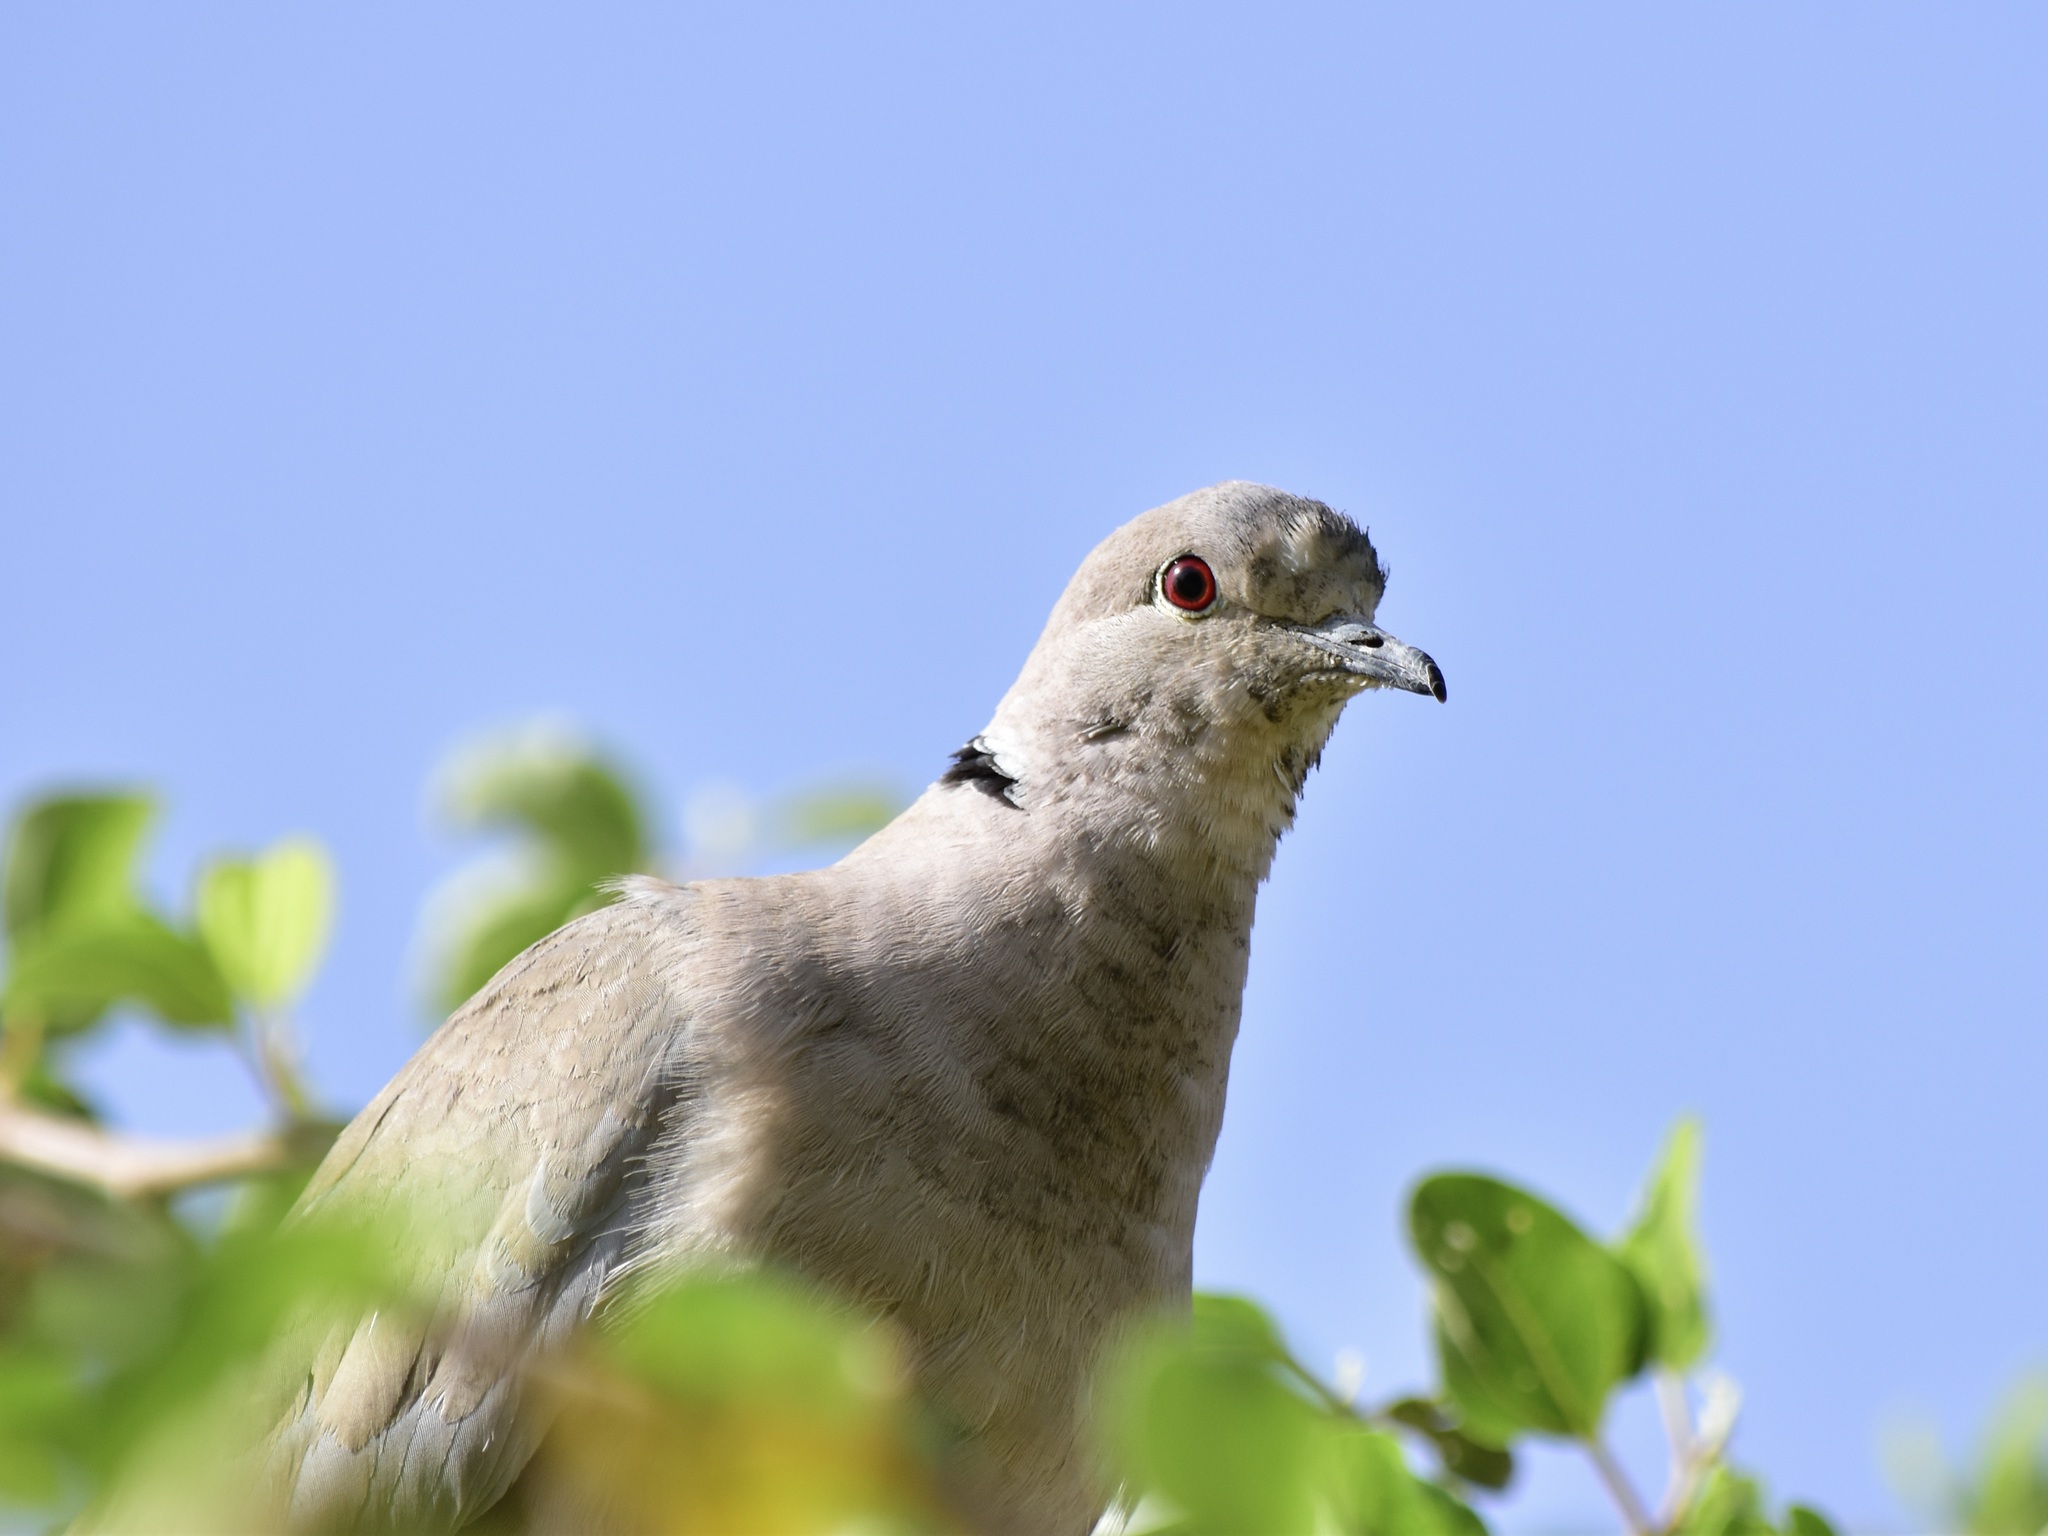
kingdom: Animalia
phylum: Chordata
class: Aves
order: Columbiformes
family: Columbidae
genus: Streptopelia
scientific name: Streptopelia decaocto
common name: Eurasian collared dove
